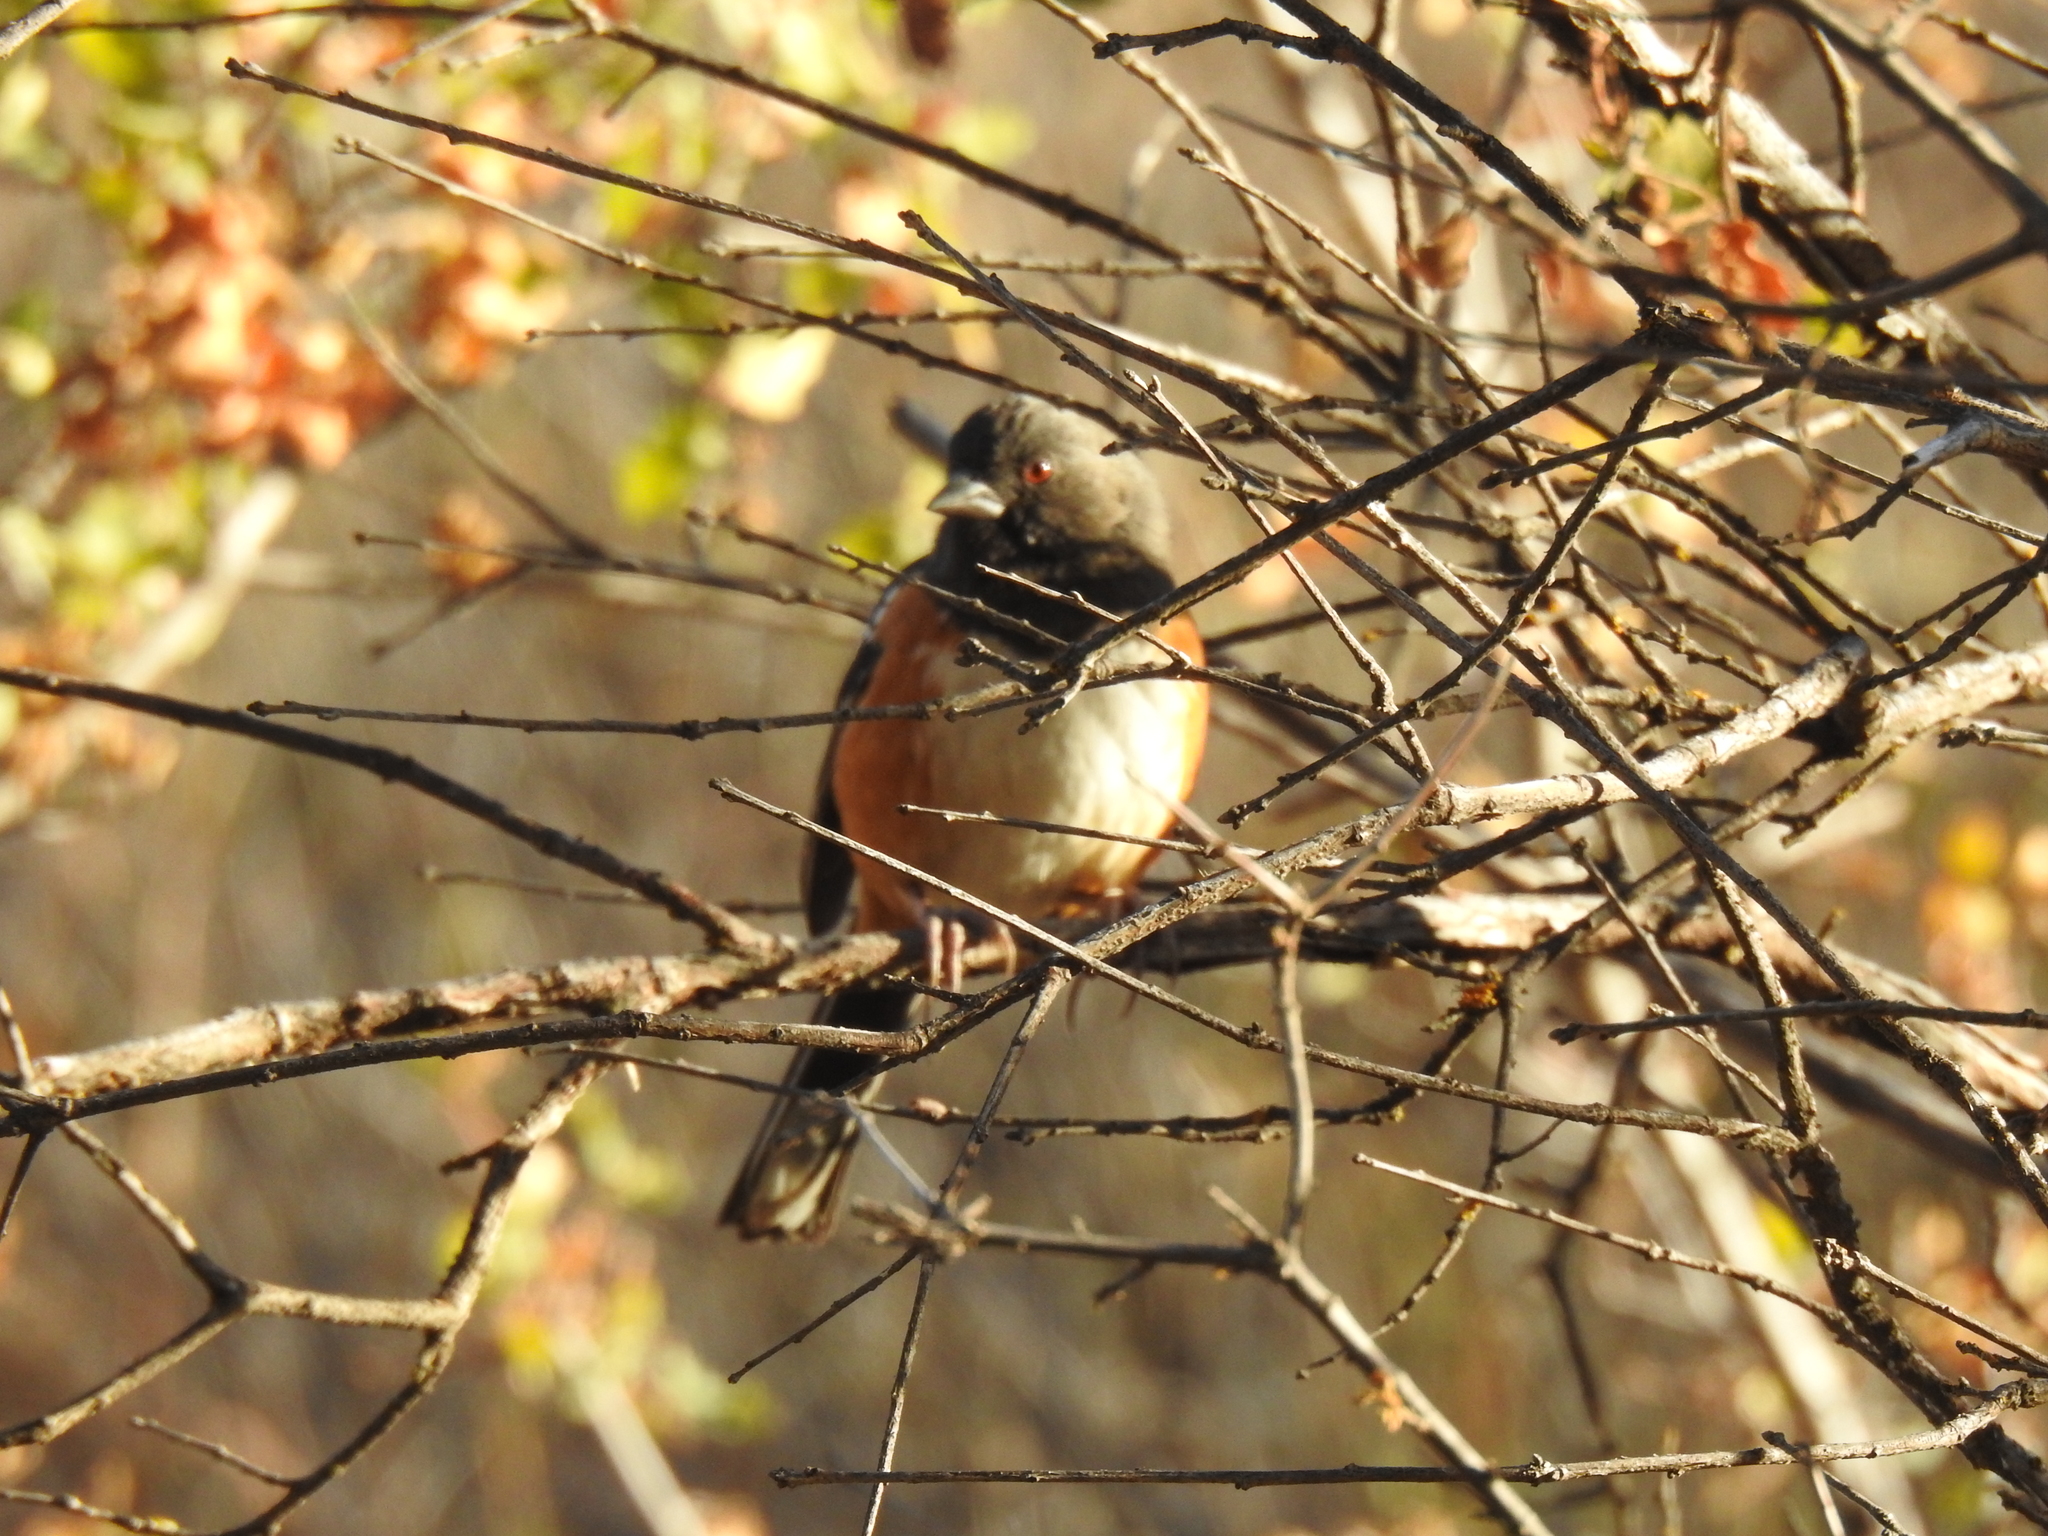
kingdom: Animalia
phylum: Chordata
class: Aves
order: Passeriformes
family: Passerellidae
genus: Pipilo
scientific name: Pipilo maculatus
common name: Spotted towhee
